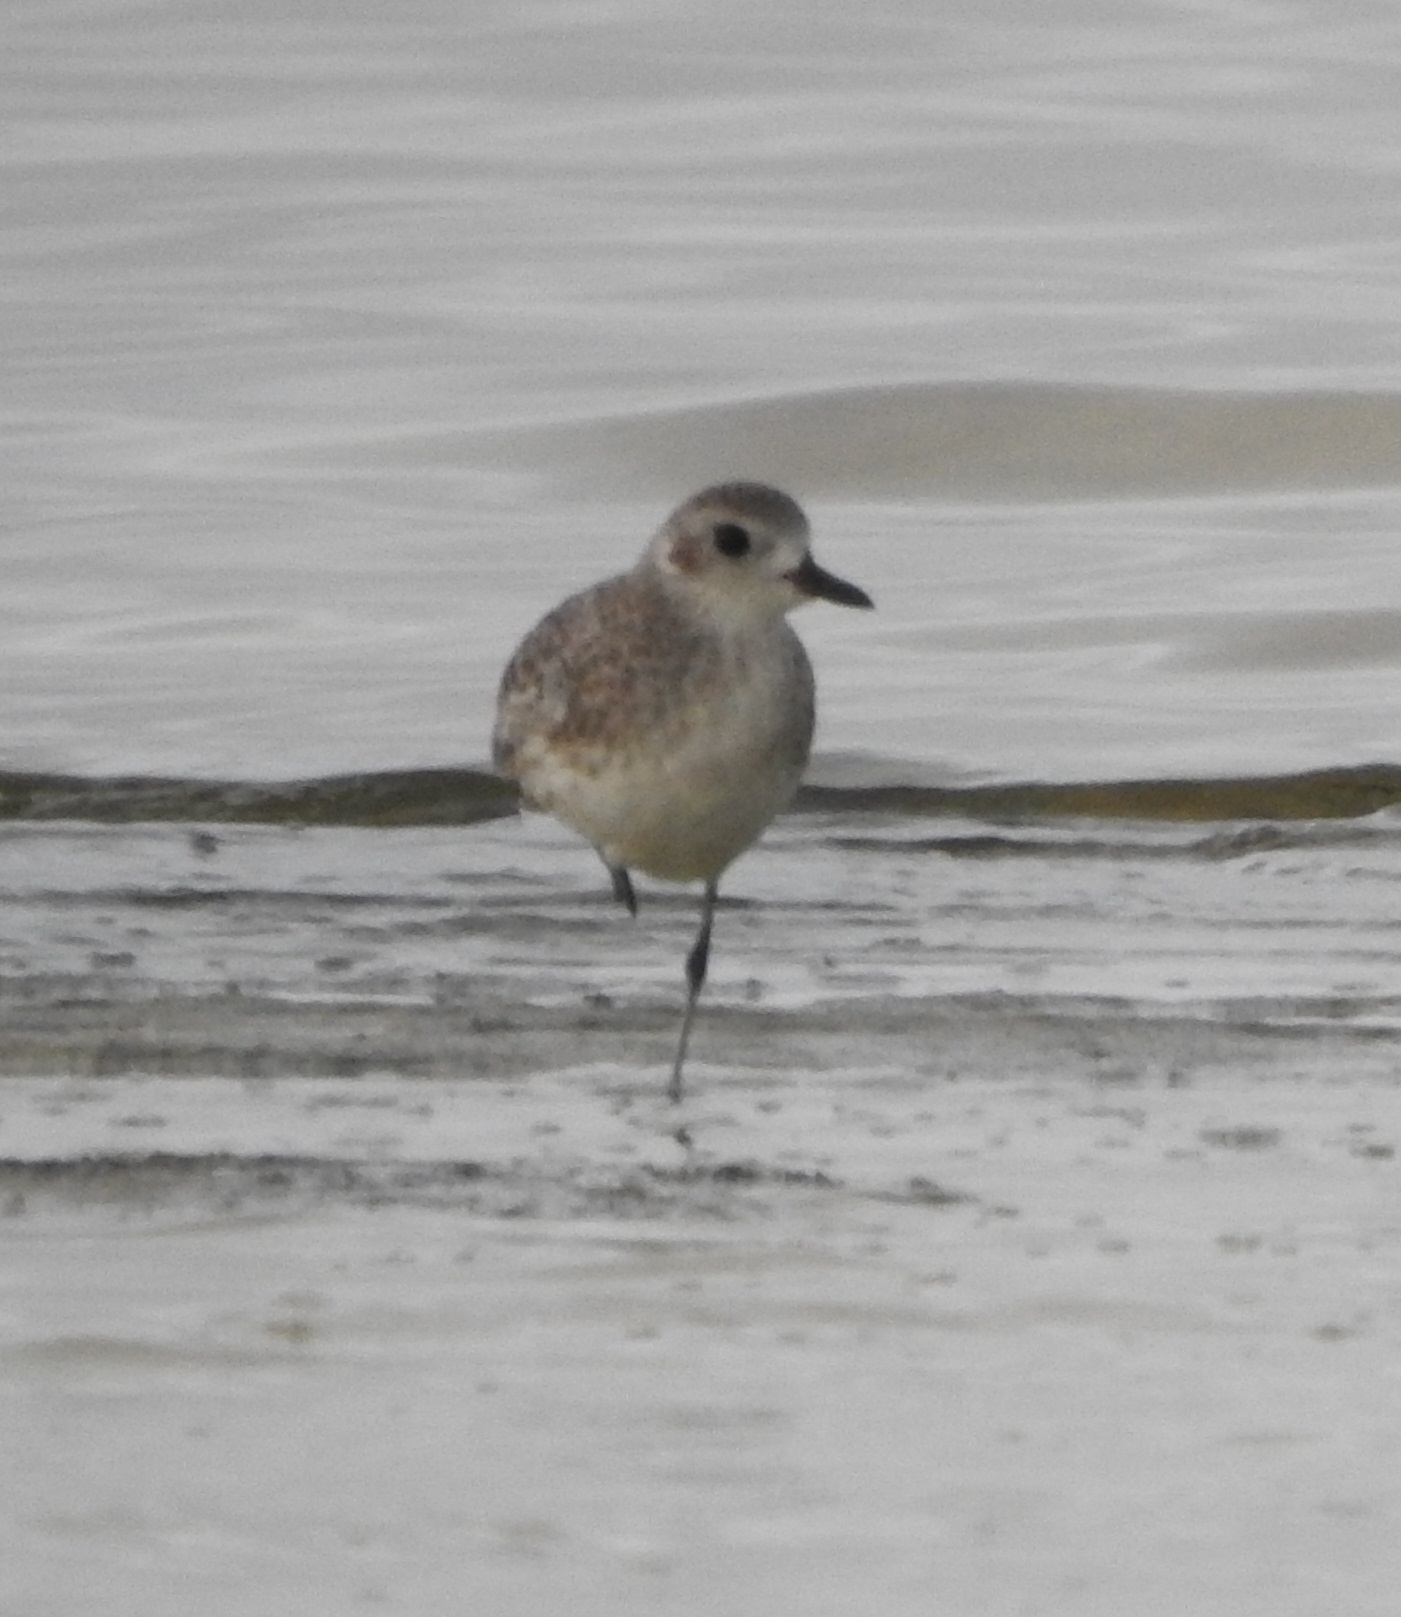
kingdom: Animalia
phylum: Chordata
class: Aves
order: Charadriiformes
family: Charadriidae
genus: Pluvialis
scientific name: Pluvialis squatarola
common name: Grey plover
